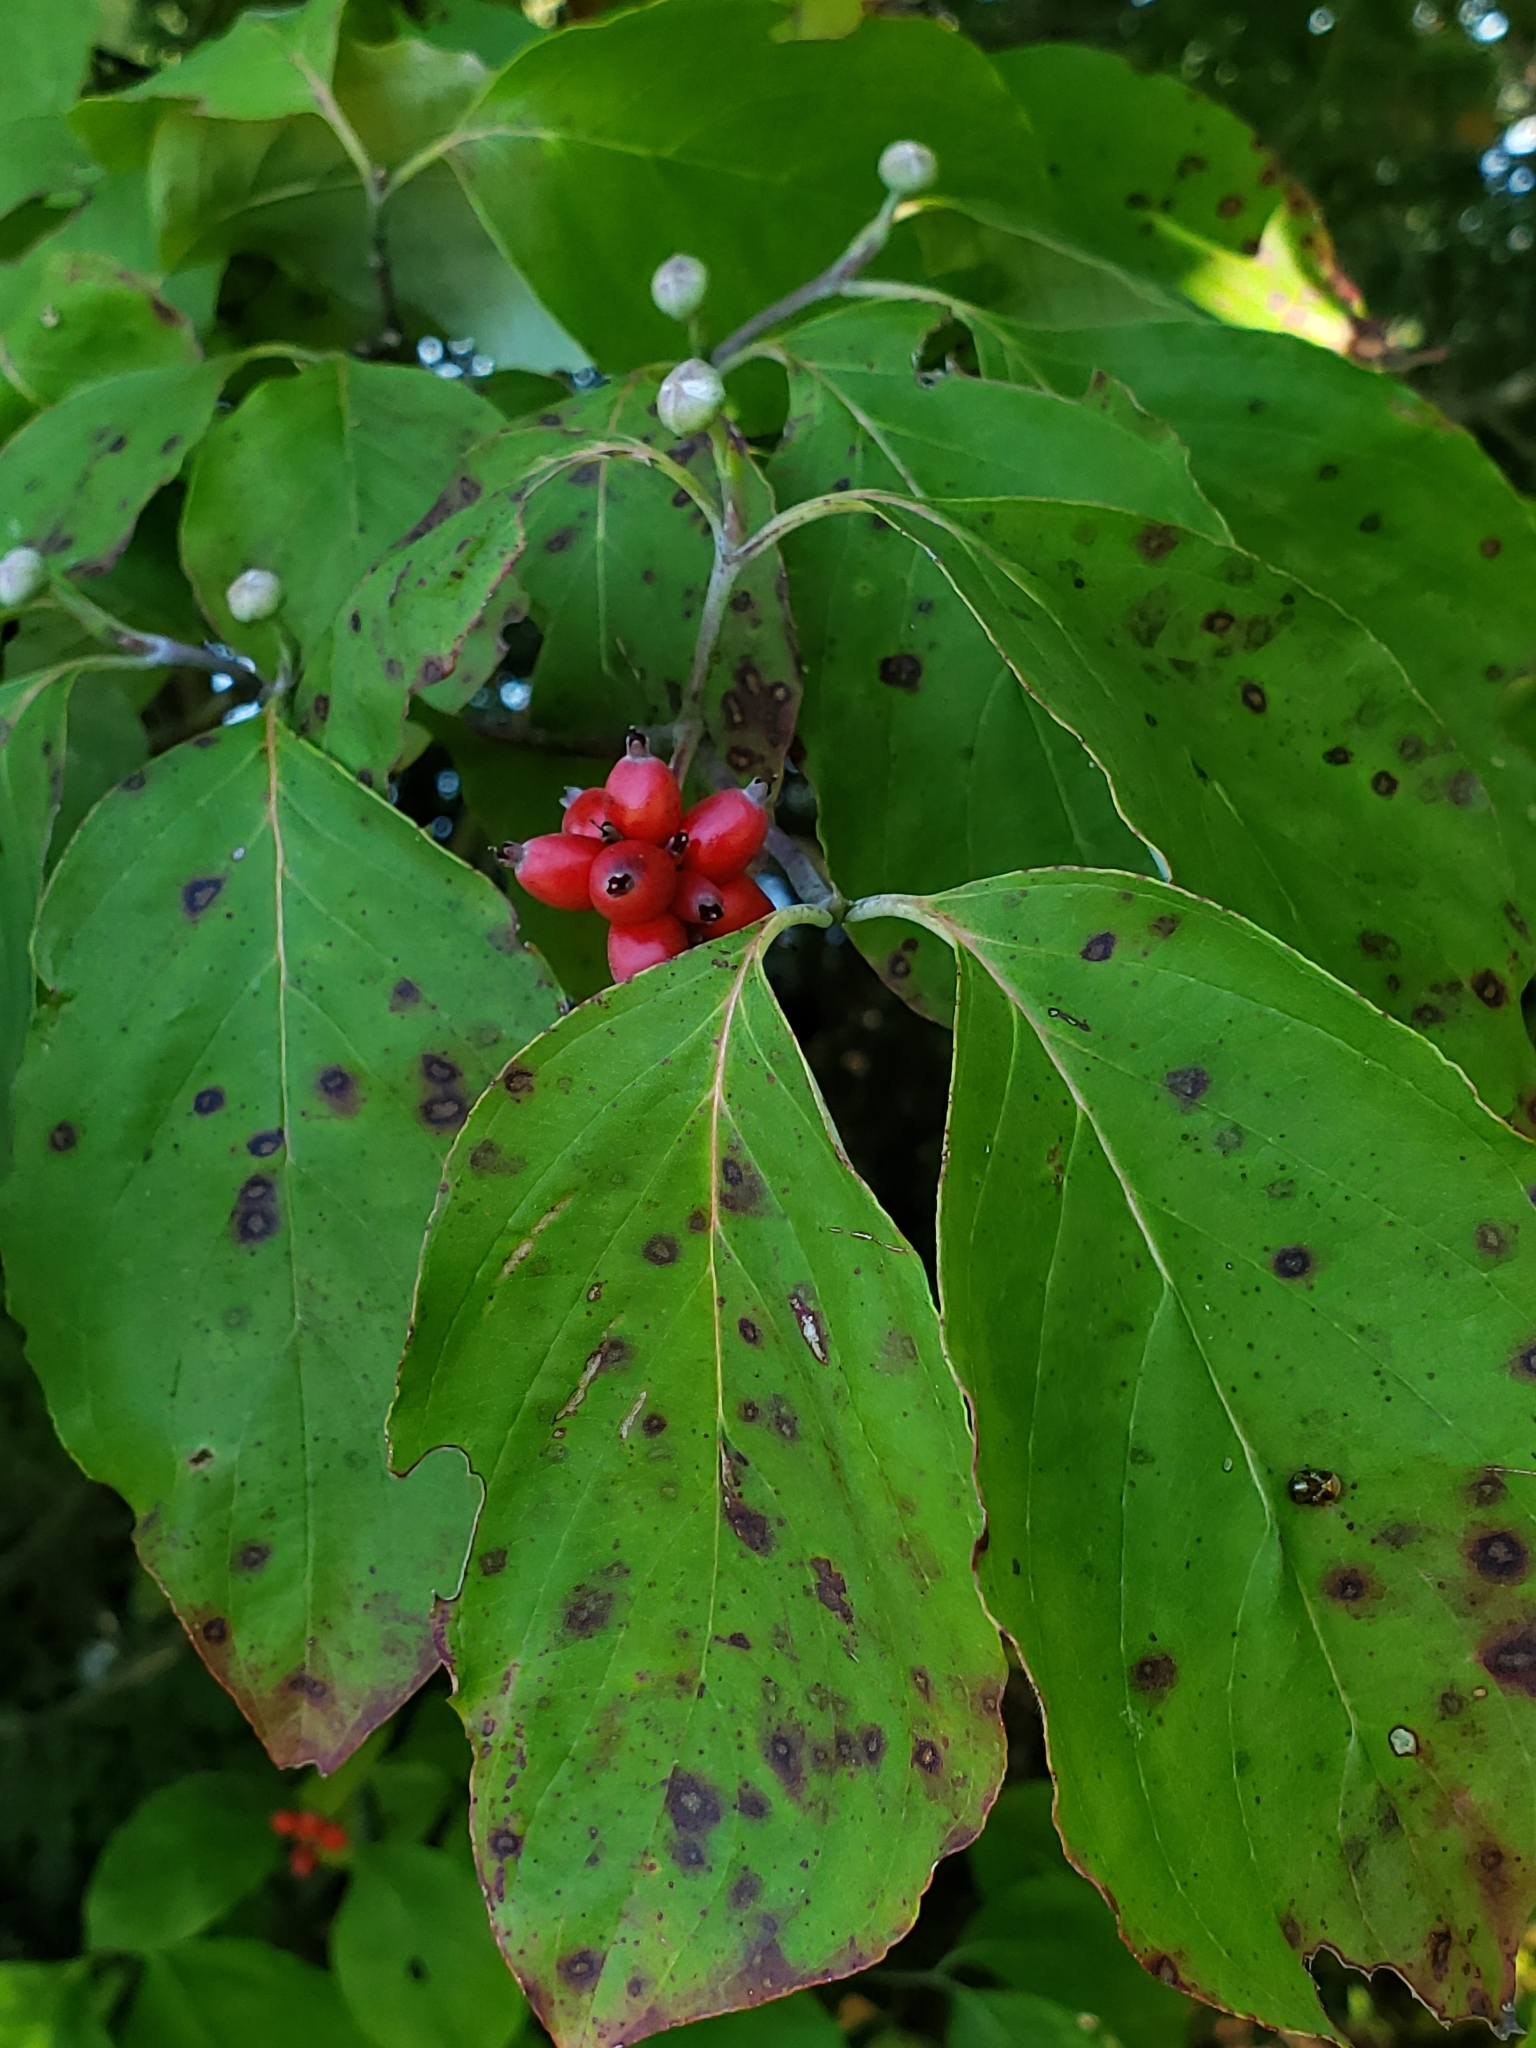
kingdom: Plantae
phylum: Tracheophyta
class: Magnoliopsida
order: Cornales
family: Cornaceae
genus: Cornus
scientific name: Cornus florida
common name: Flowering dogwood
